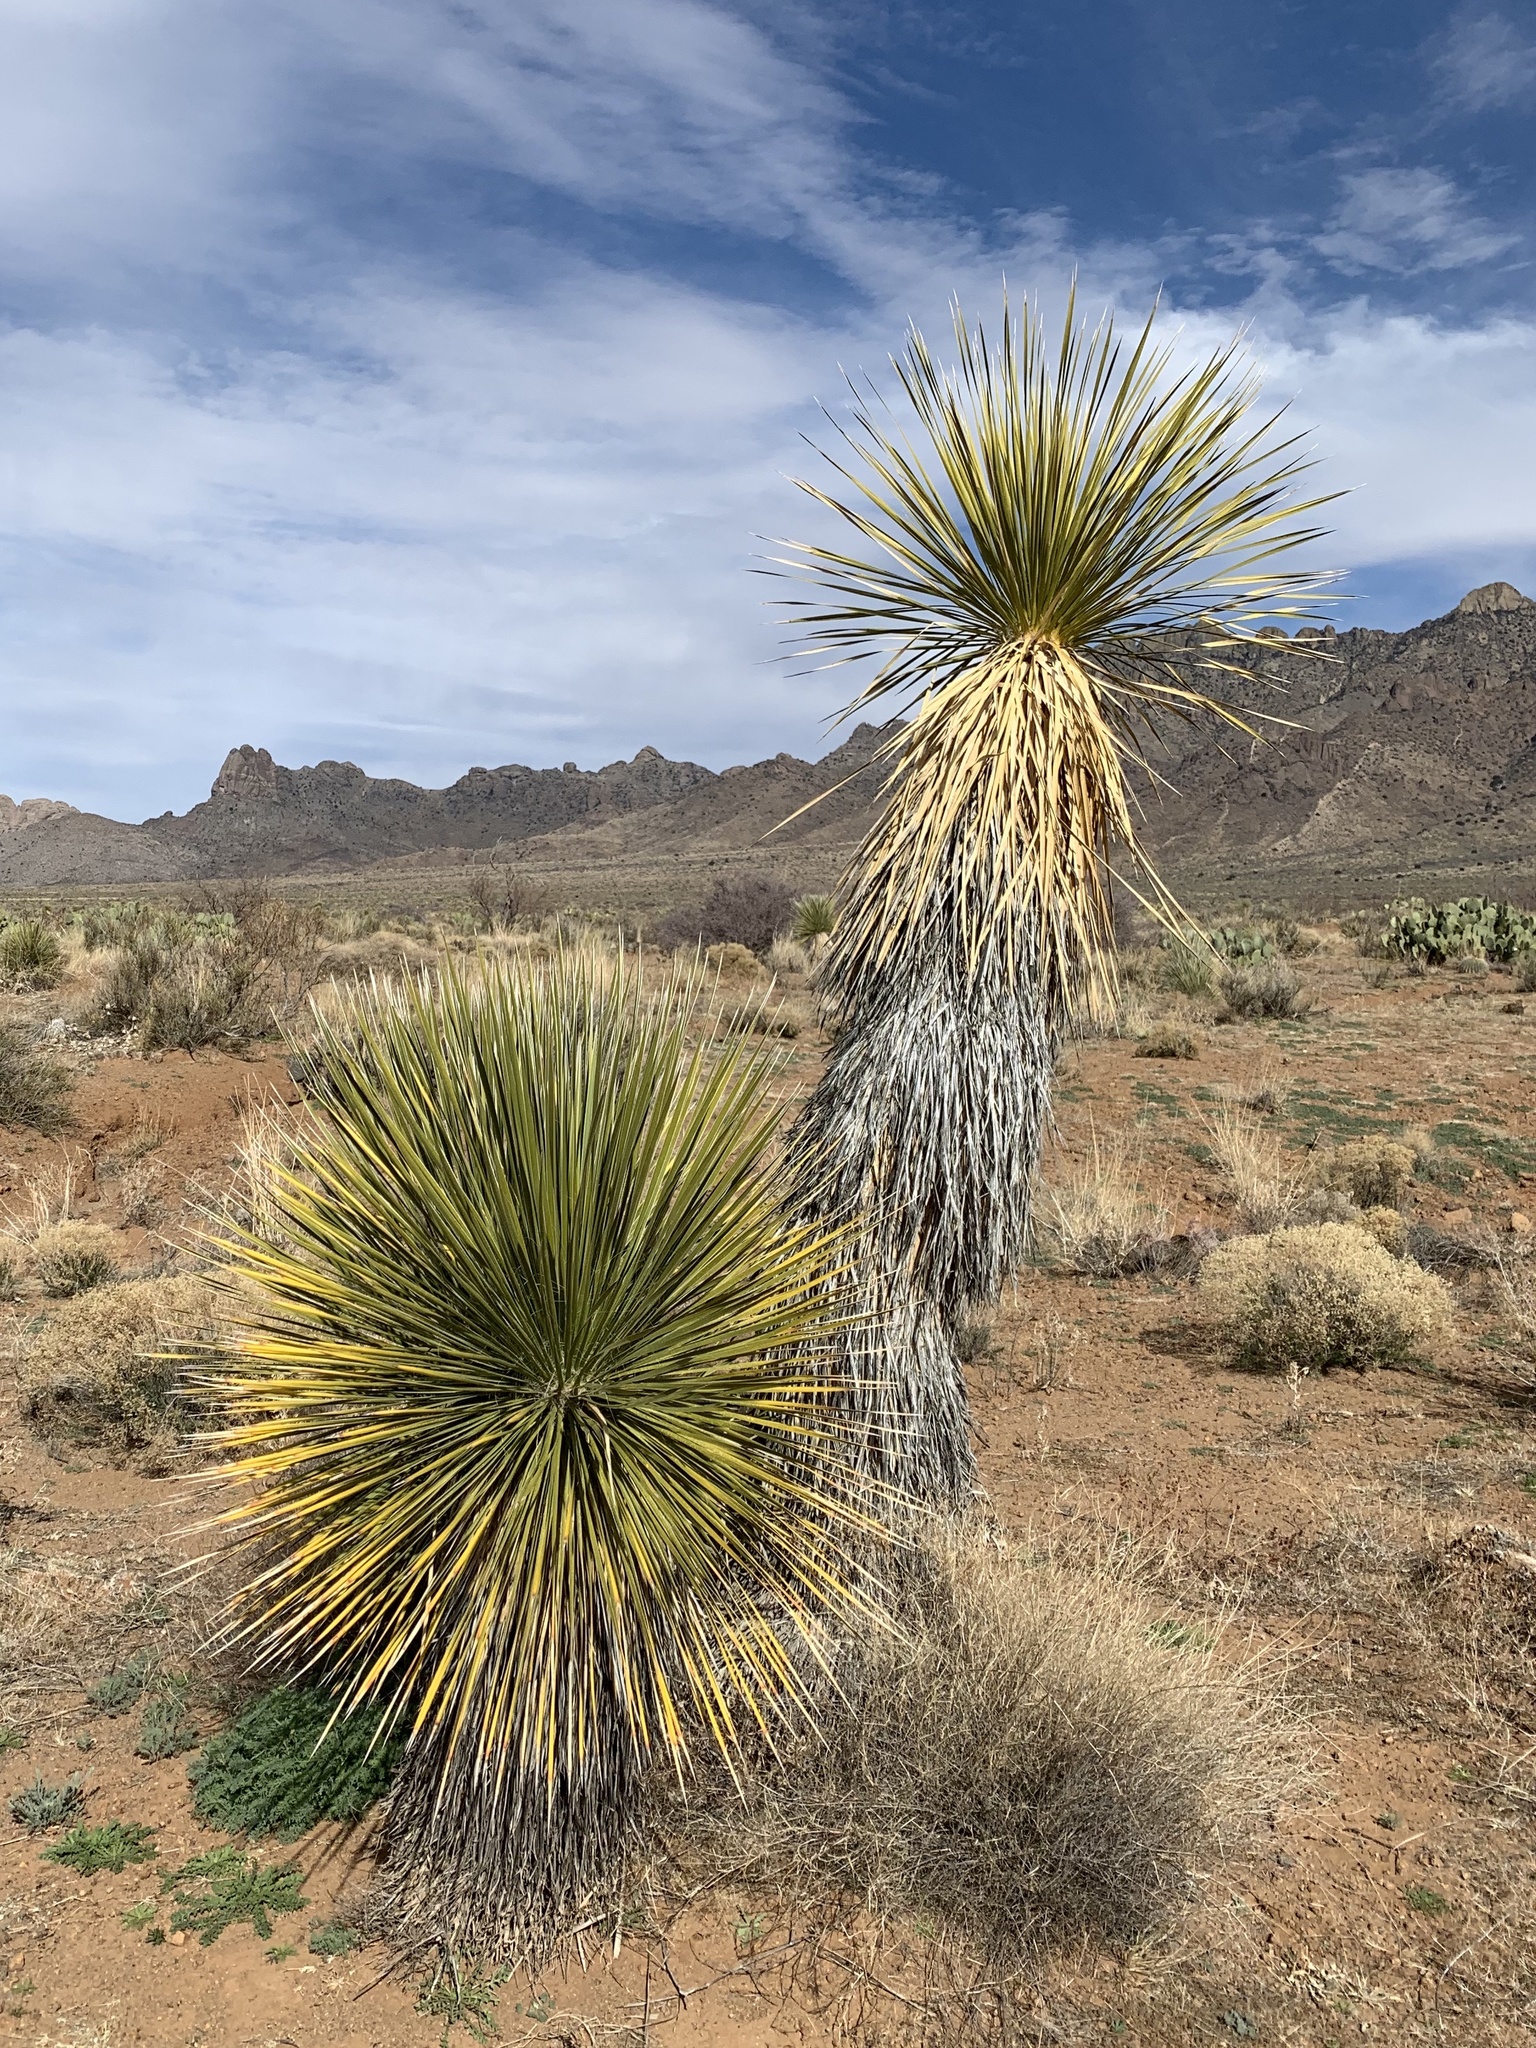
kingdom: Plantae
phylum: Tracheophyta
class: Liliopsida
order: Asparagales
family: Asparagaceae
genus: Yucca
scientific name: Yucca elata
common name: Palmella
